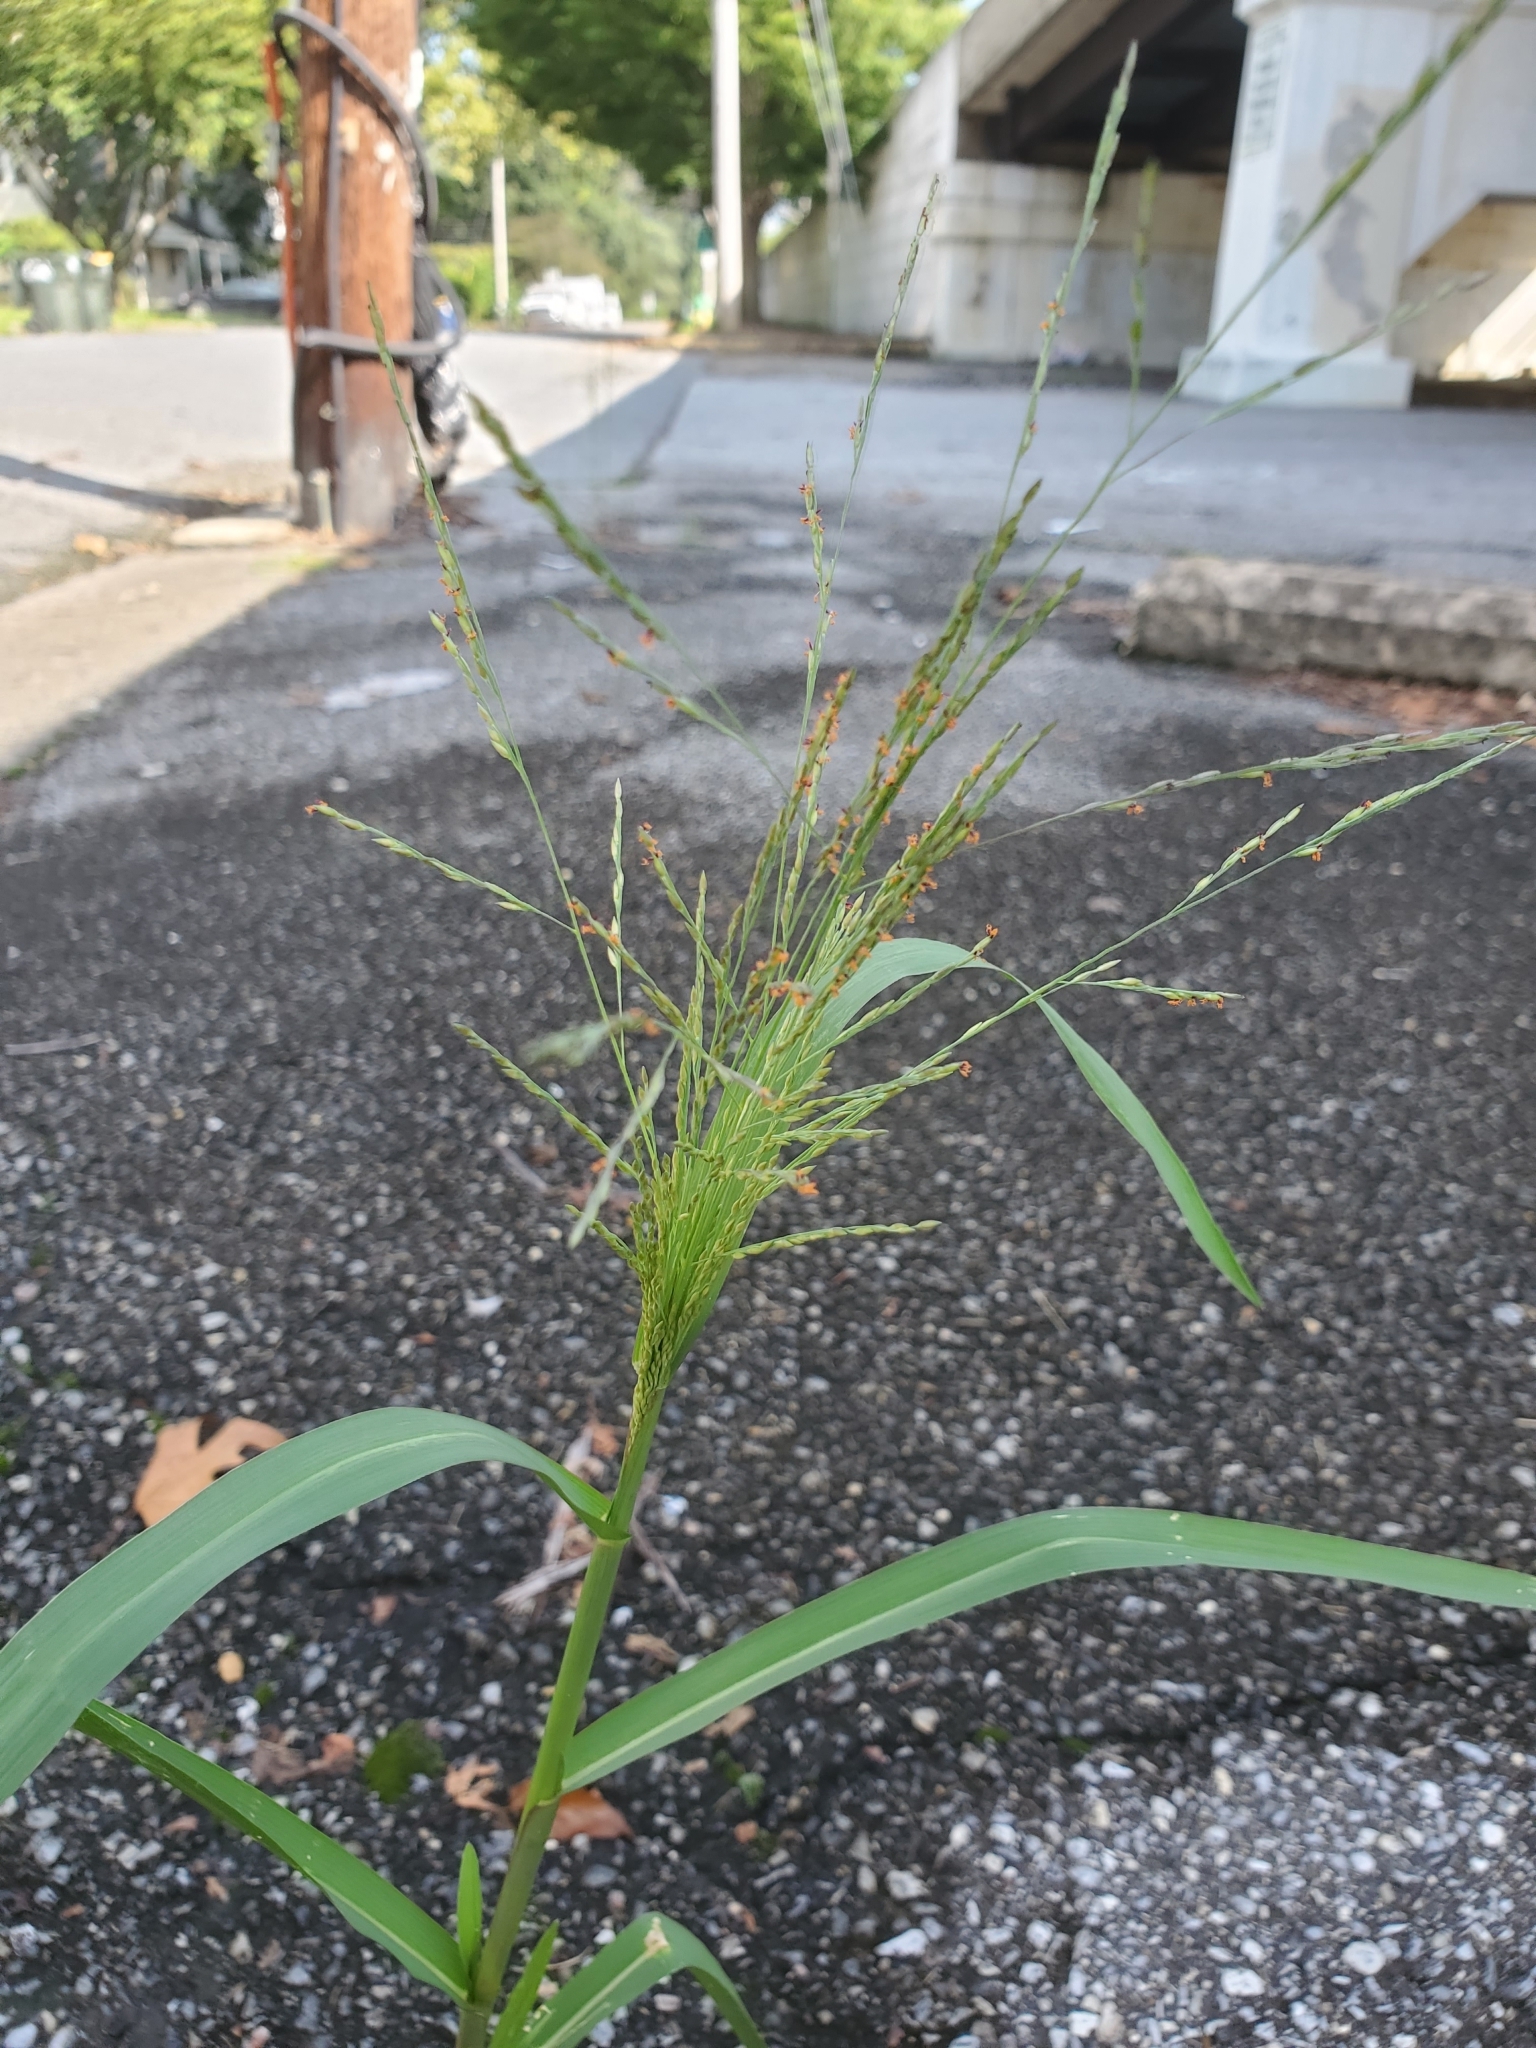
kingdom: Plantae
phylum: Tracheophyta
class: Liliopsida
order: Poales
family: Poaceae
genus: Panicum
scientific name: Panicum dichotomiflorum
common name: Autumn millet
